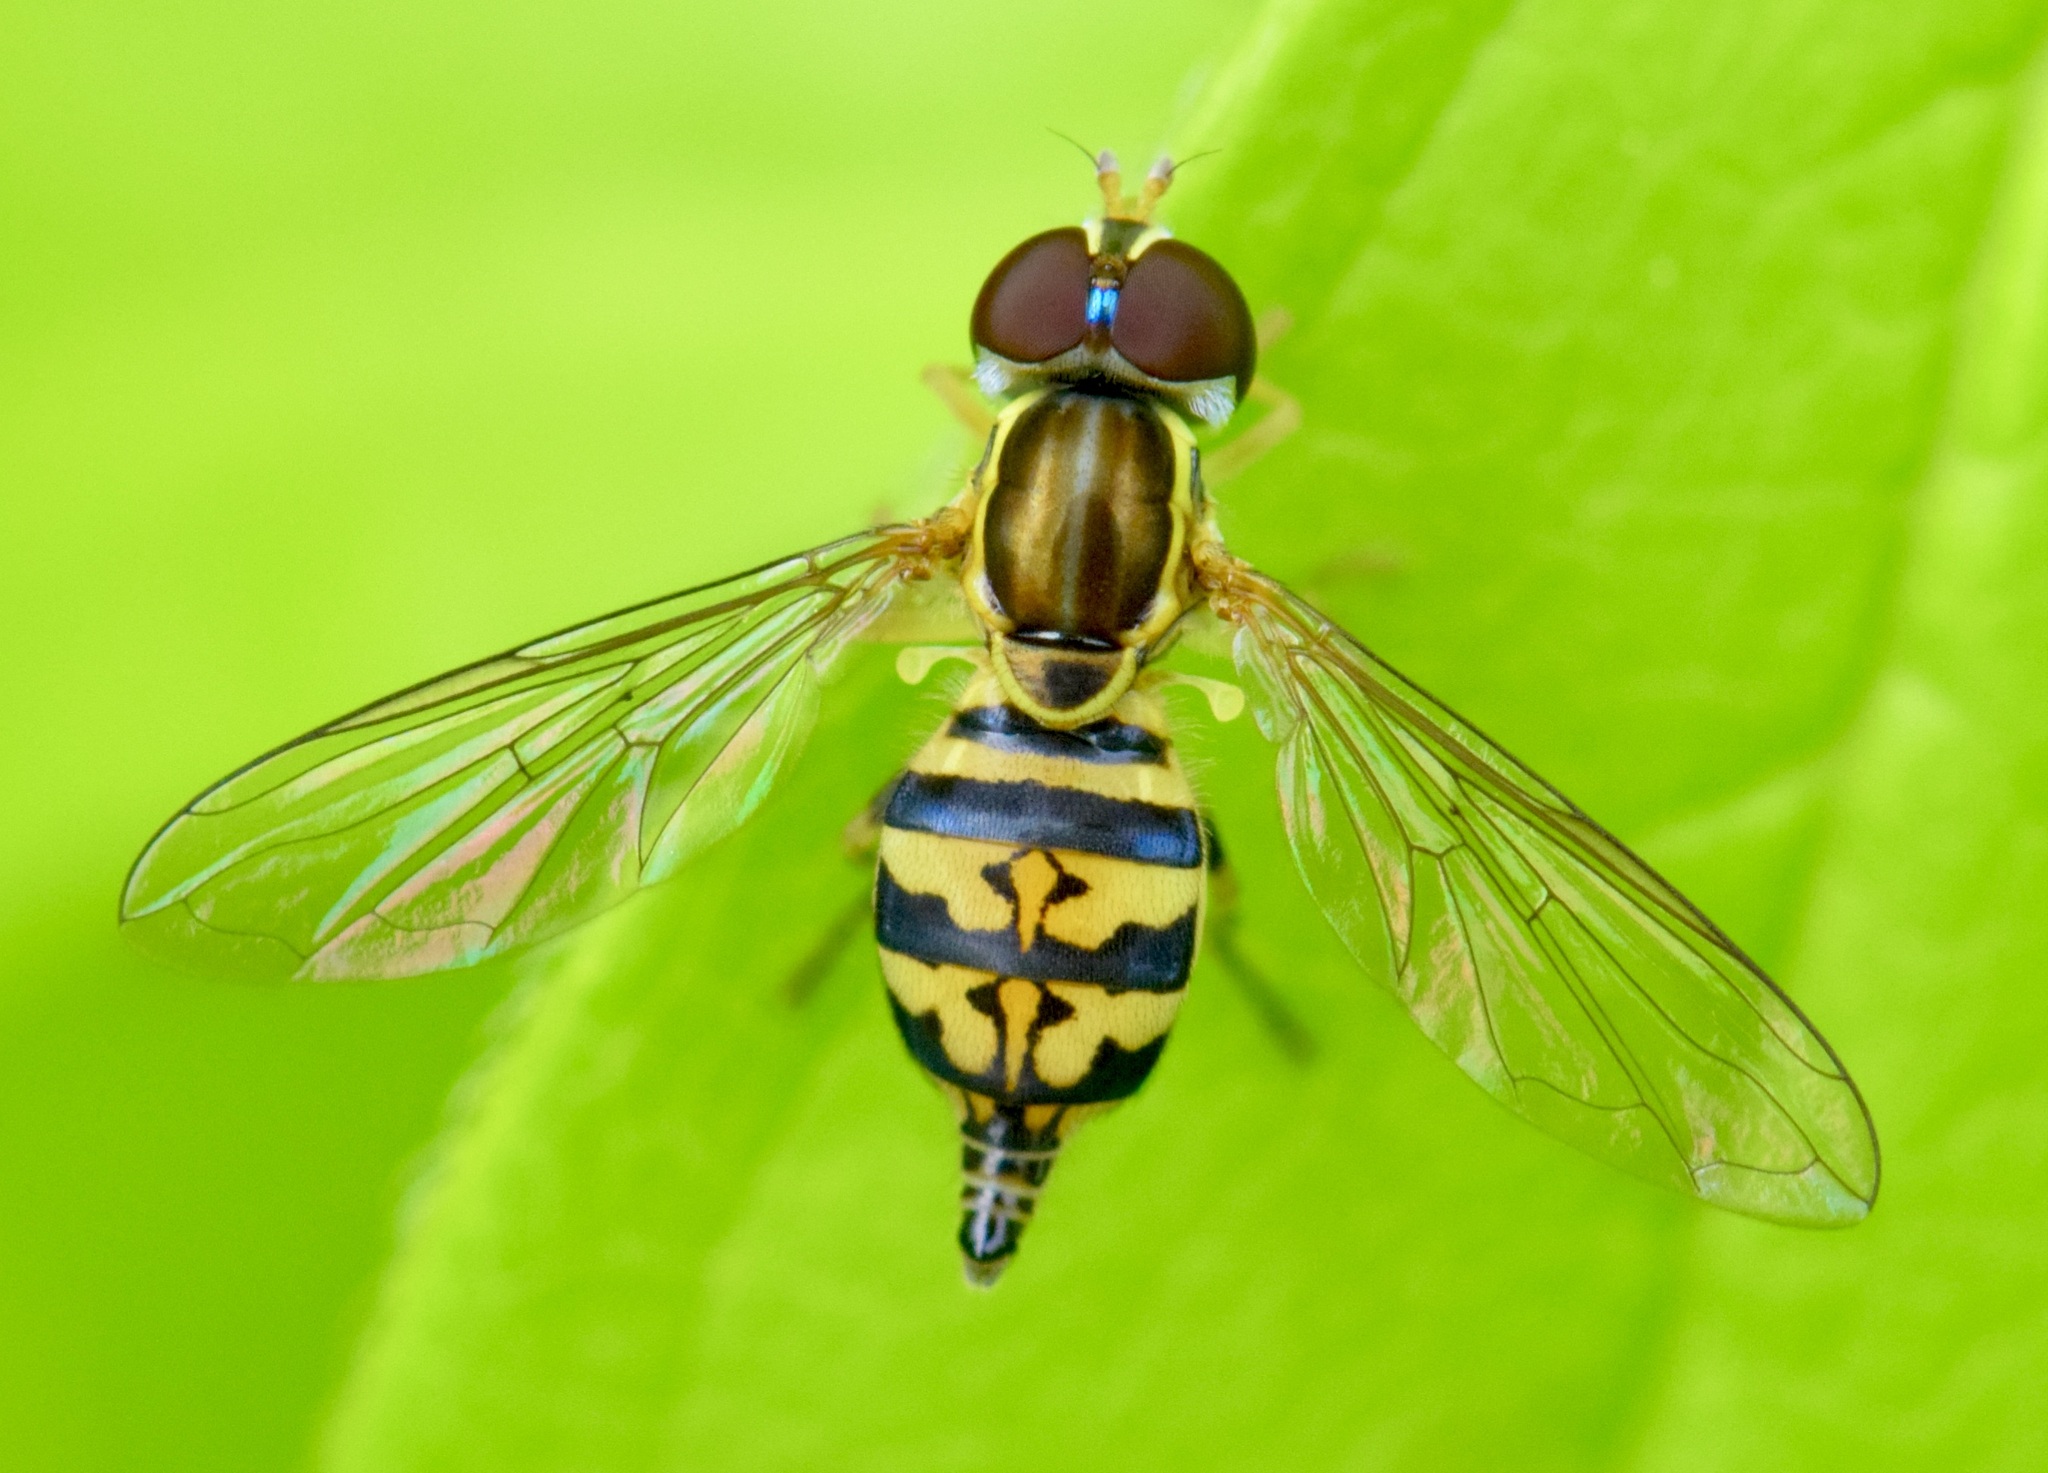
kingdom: Animalia
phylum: Arthropoda
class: Insecta
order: Diptera
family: Syrphidae
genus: Toxomerus
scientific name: Toxomerus geminatus
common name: Eastern calligrapher
